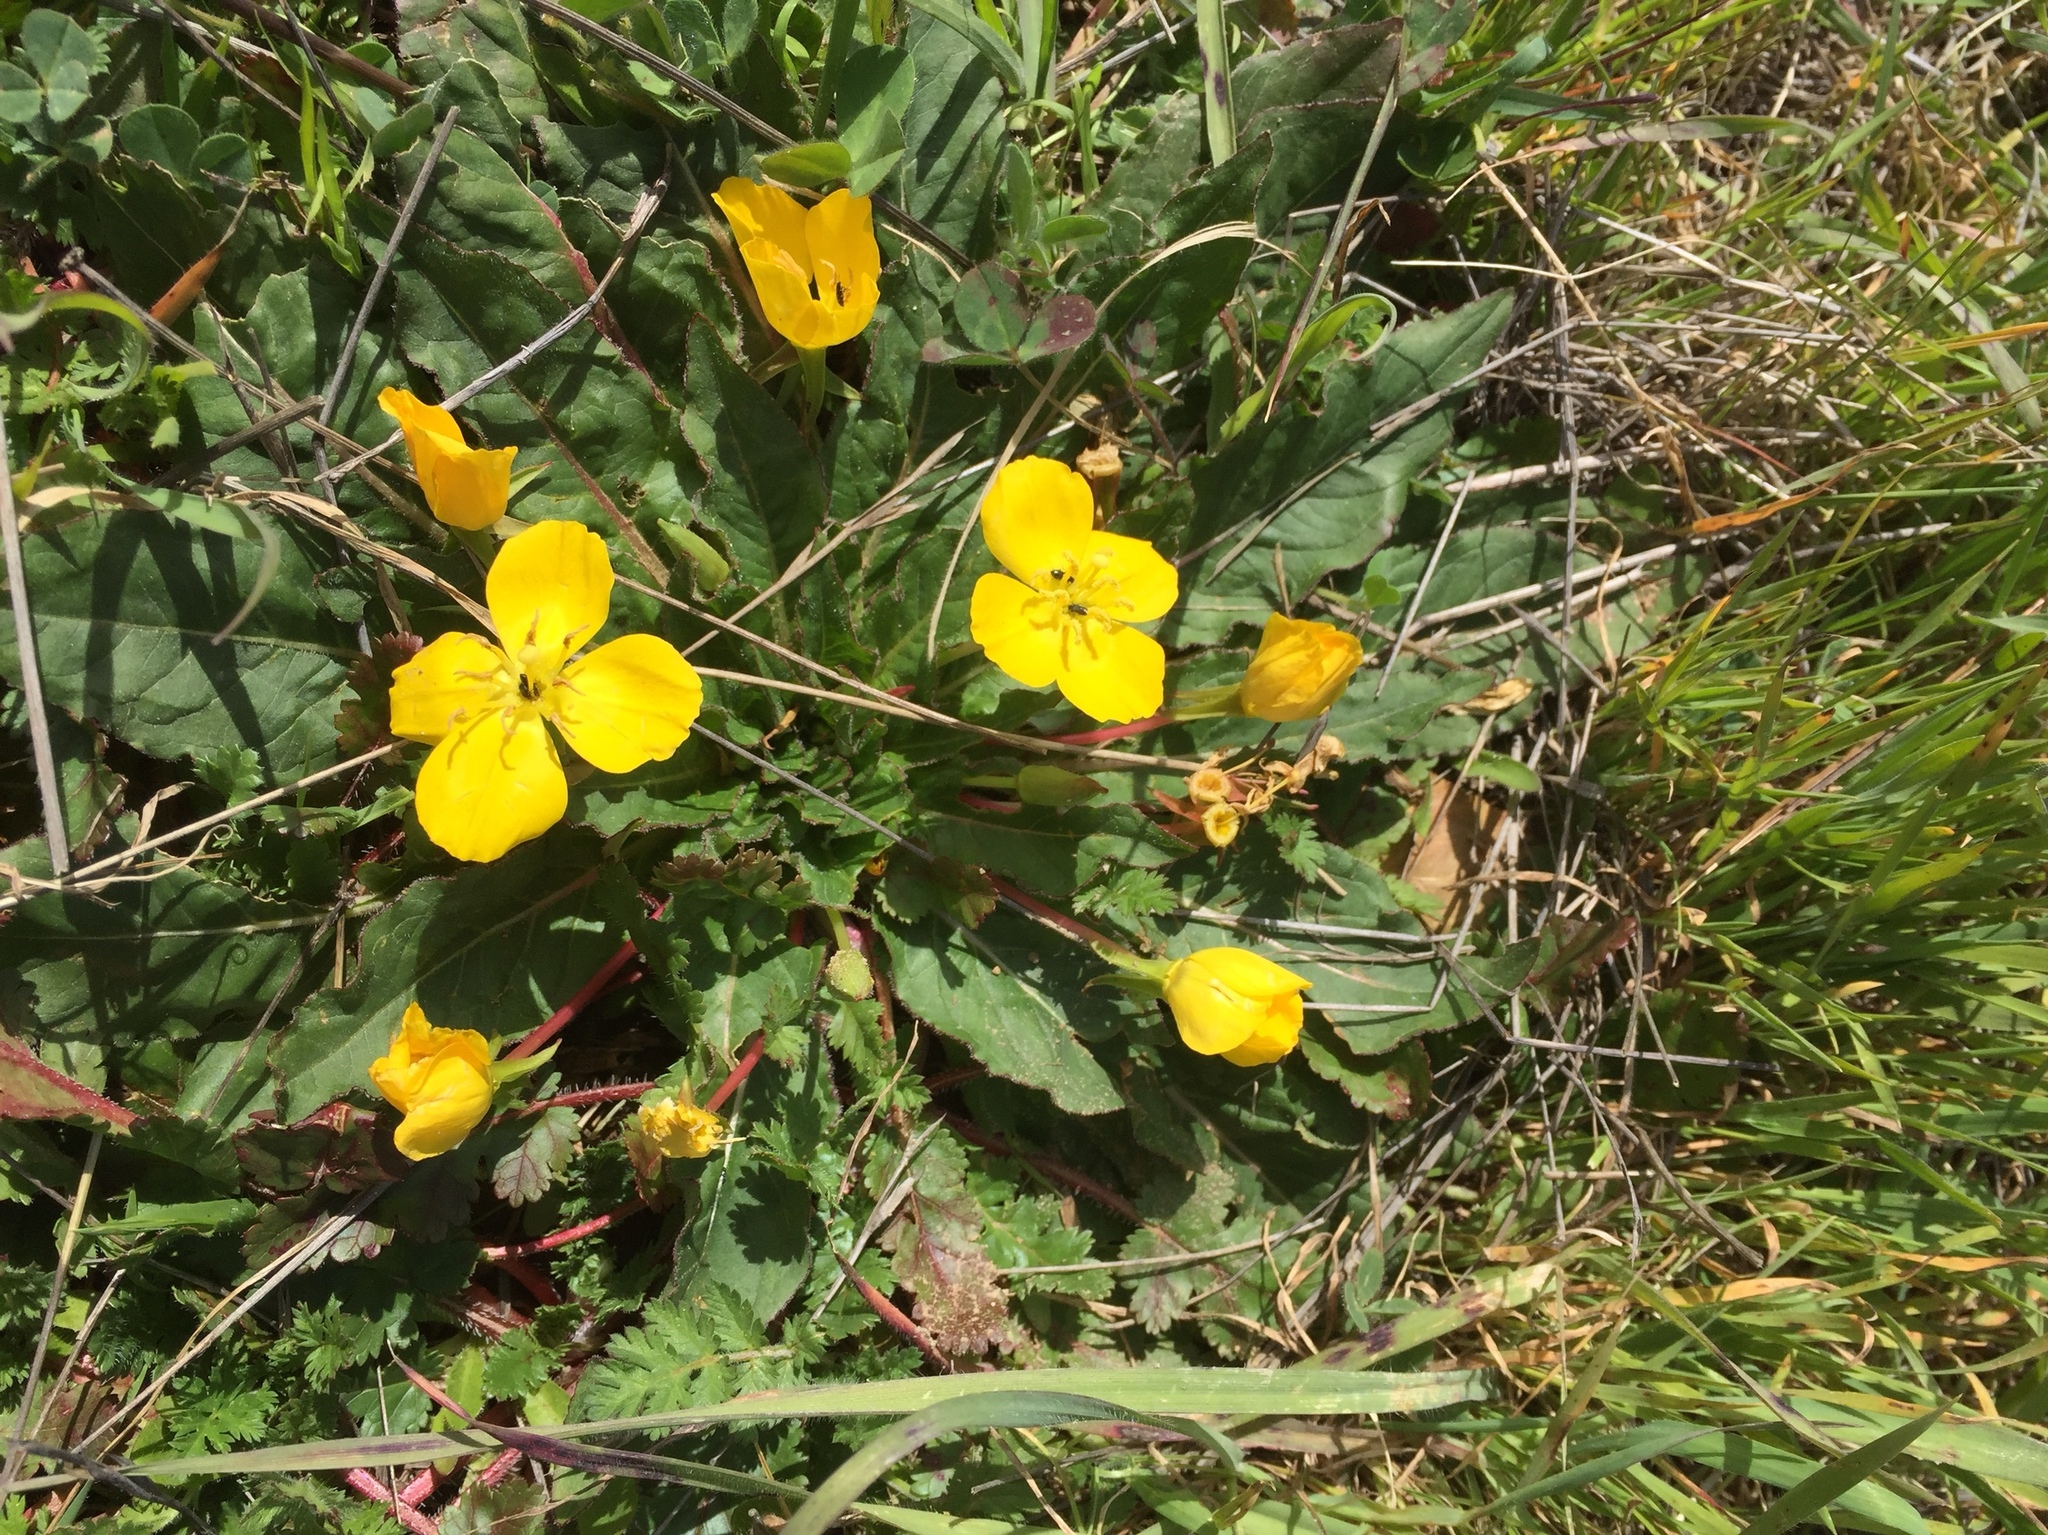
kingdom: Plantae
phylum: Tracheophyta
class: Magnoliopsida
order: Myrtales
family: Onagraceae
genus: Taraxia
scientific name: Taraxia ovata
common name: Goldeneggs
